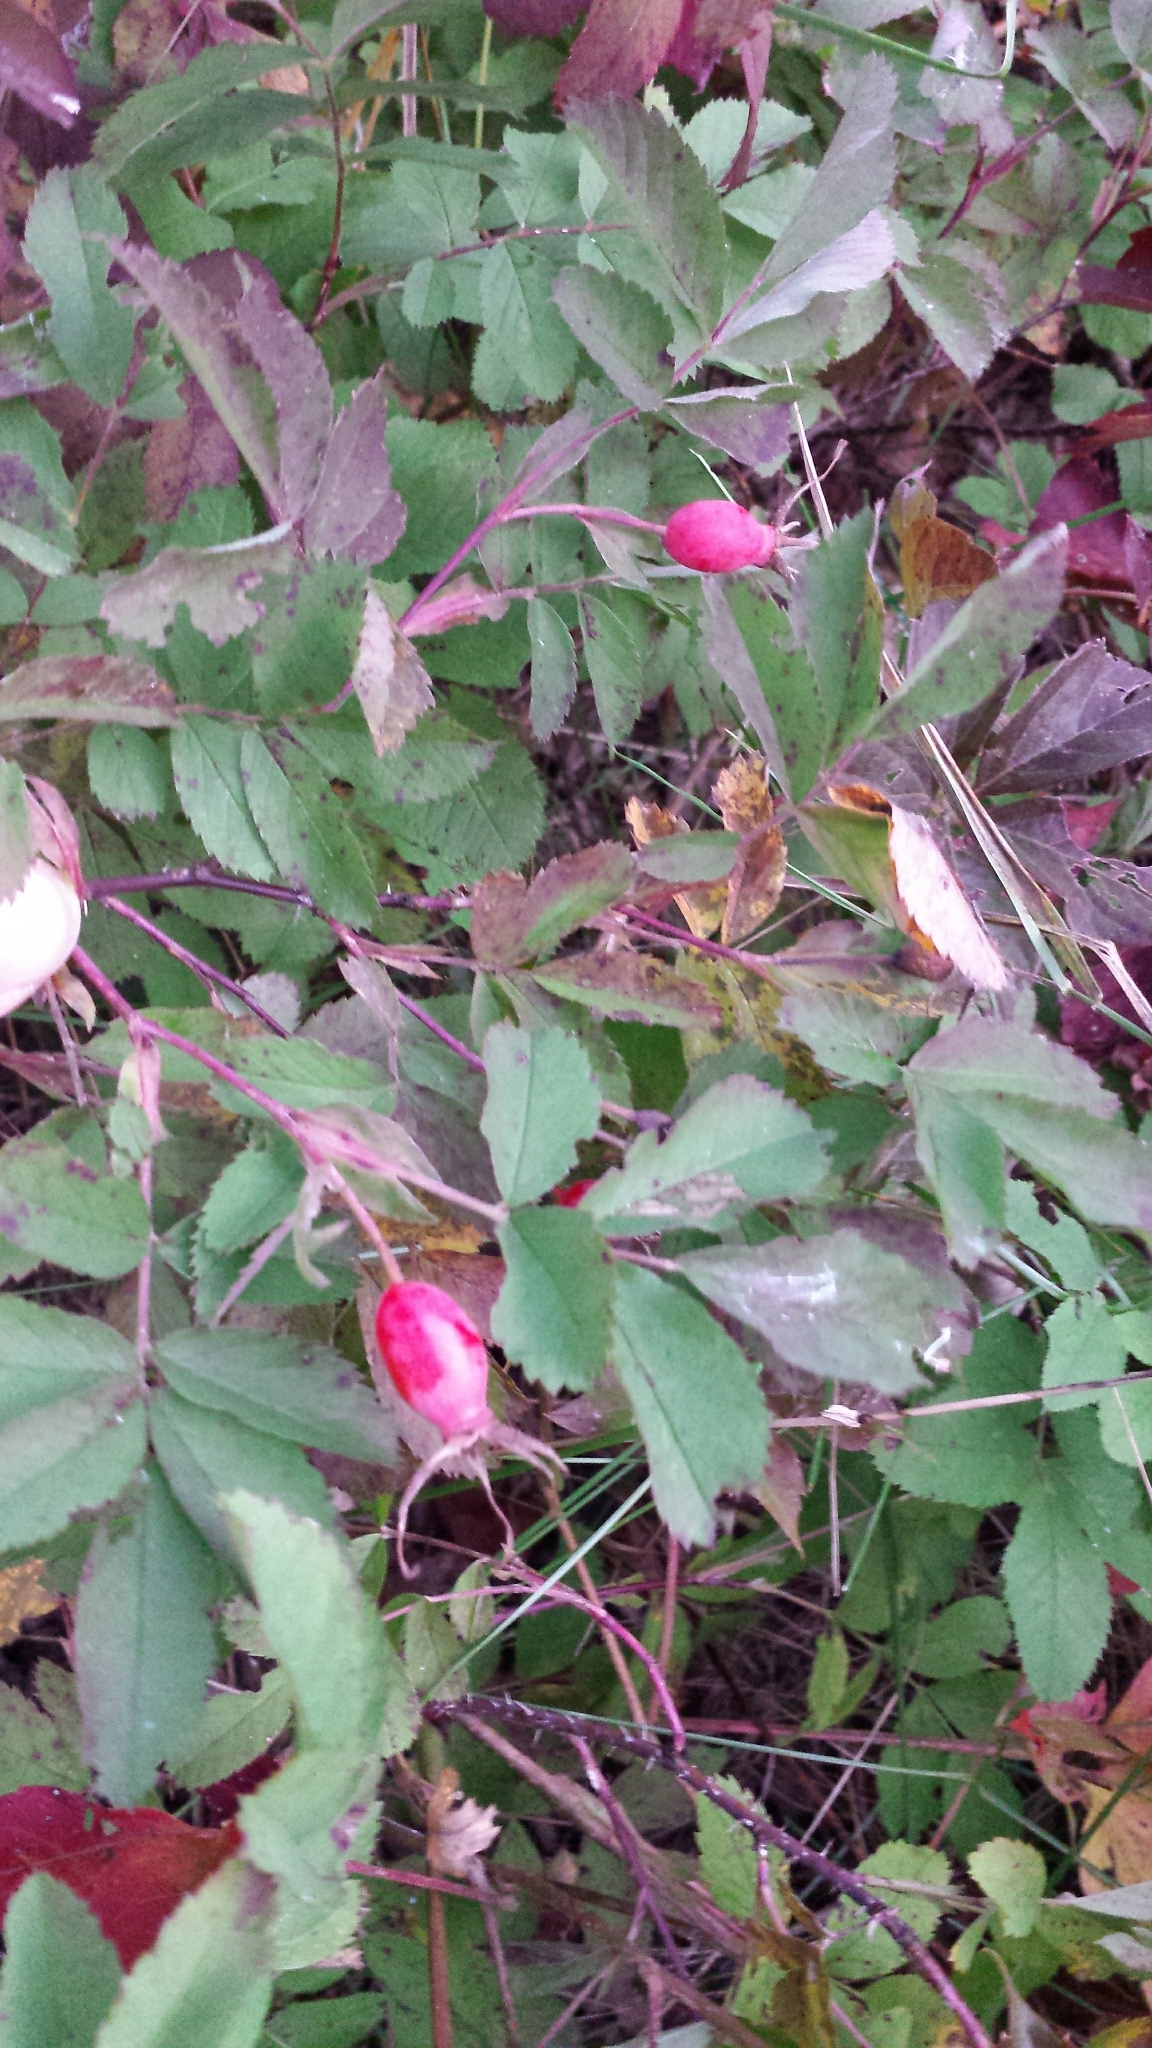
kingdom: Plantae
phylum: Tracheophyta
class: Magnoliopsida
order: Rosales
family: Rosaceae
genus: Rosa
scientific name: Rosa acicularis
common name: Prickly rose
